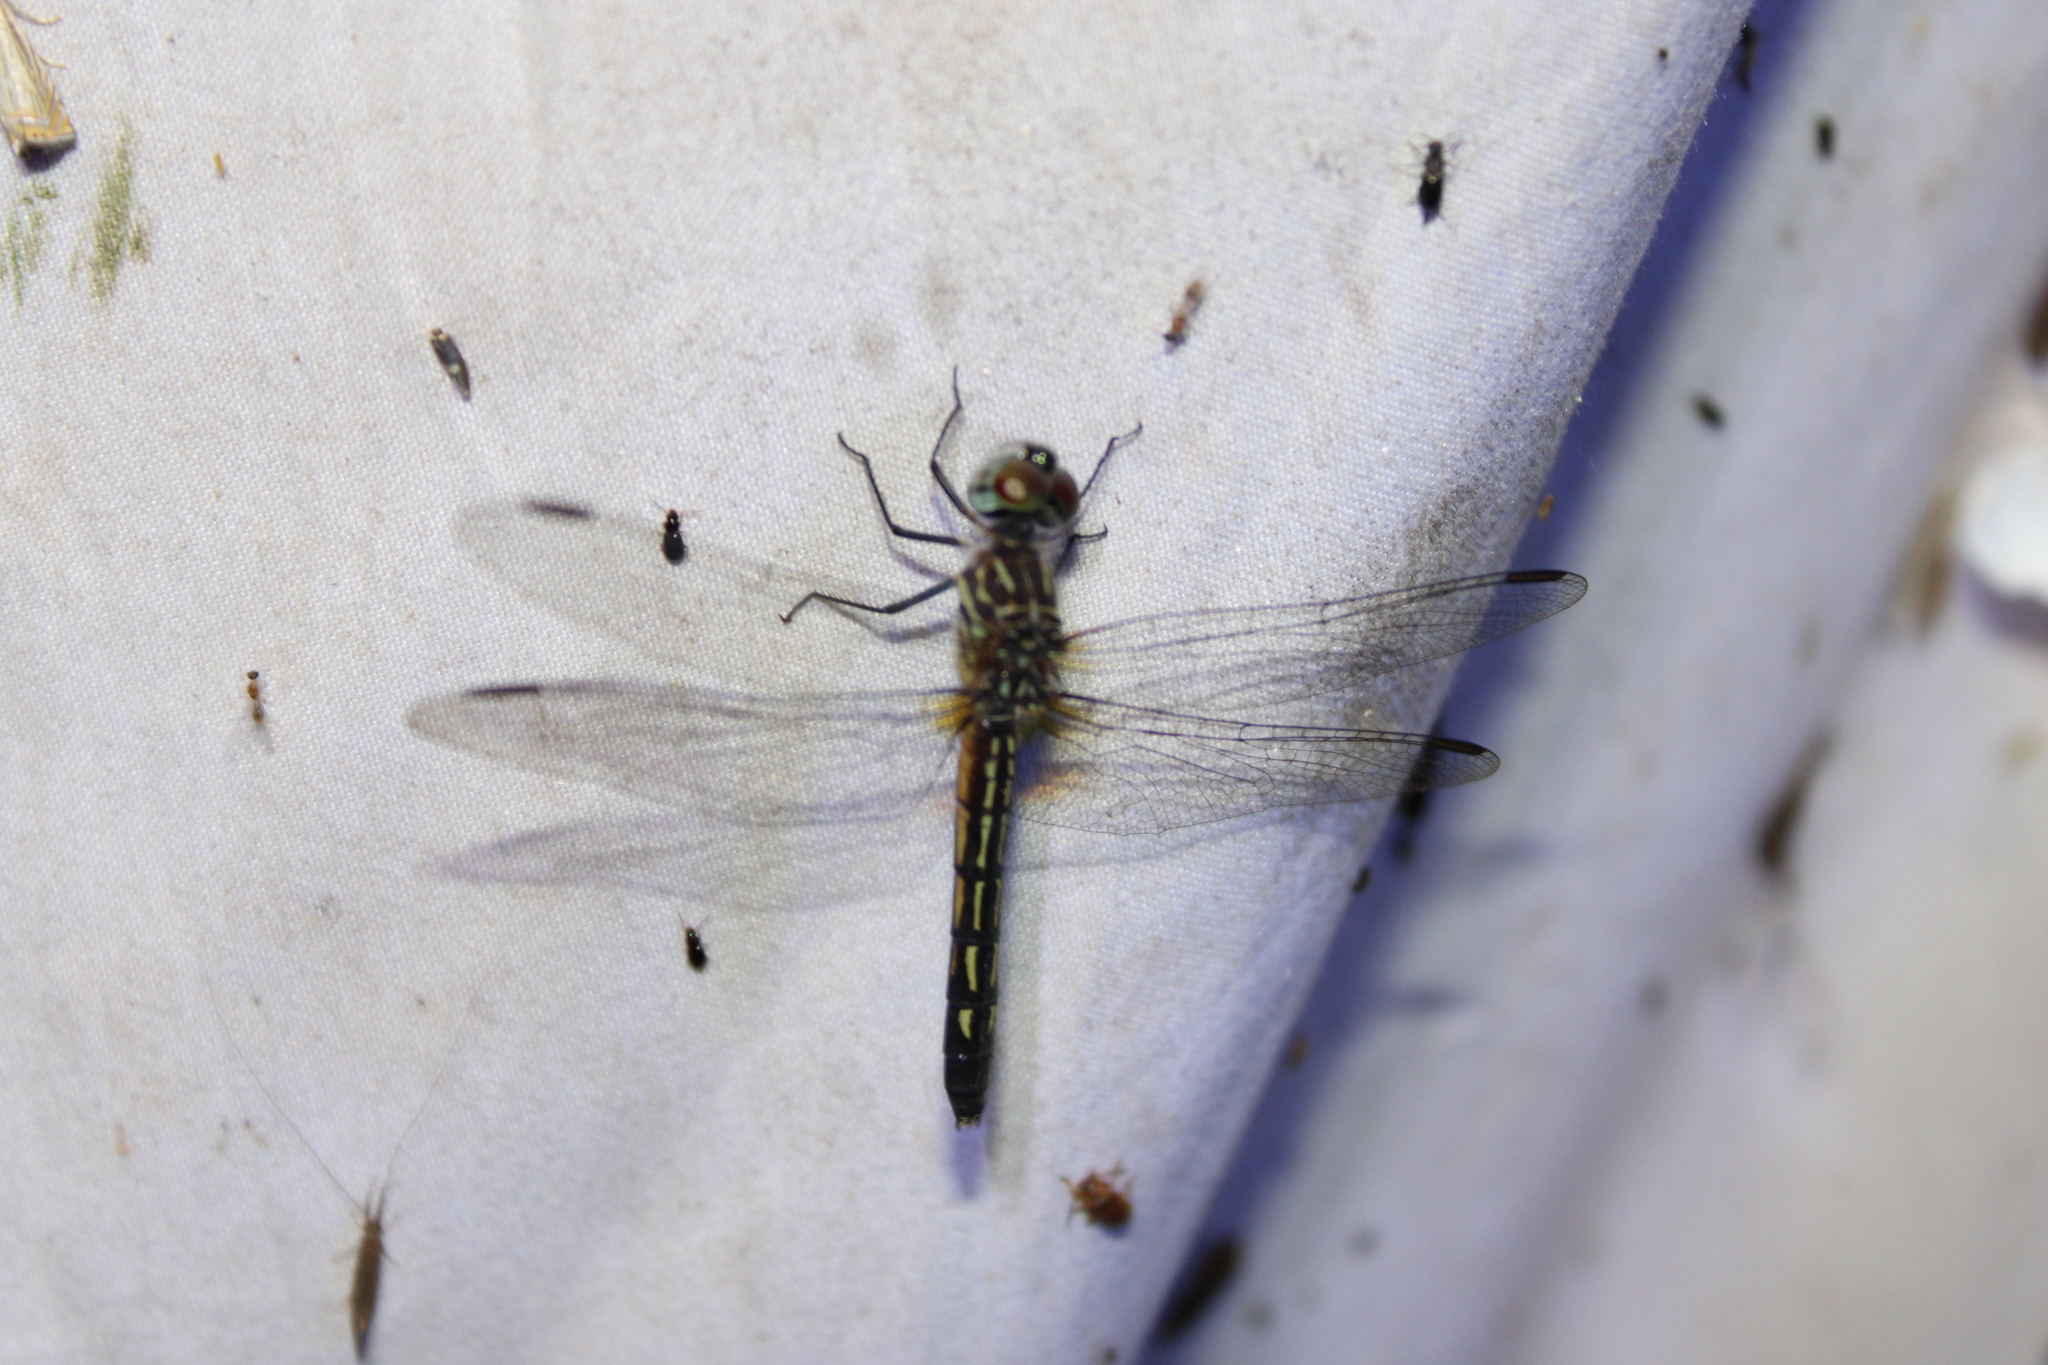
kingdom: Animalia
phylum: Arthropoda
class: Insecta
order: Odonata
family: Libellulidae
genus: Pachydiplax
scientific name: Pachydiplax longipennis
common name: Blue dasher
